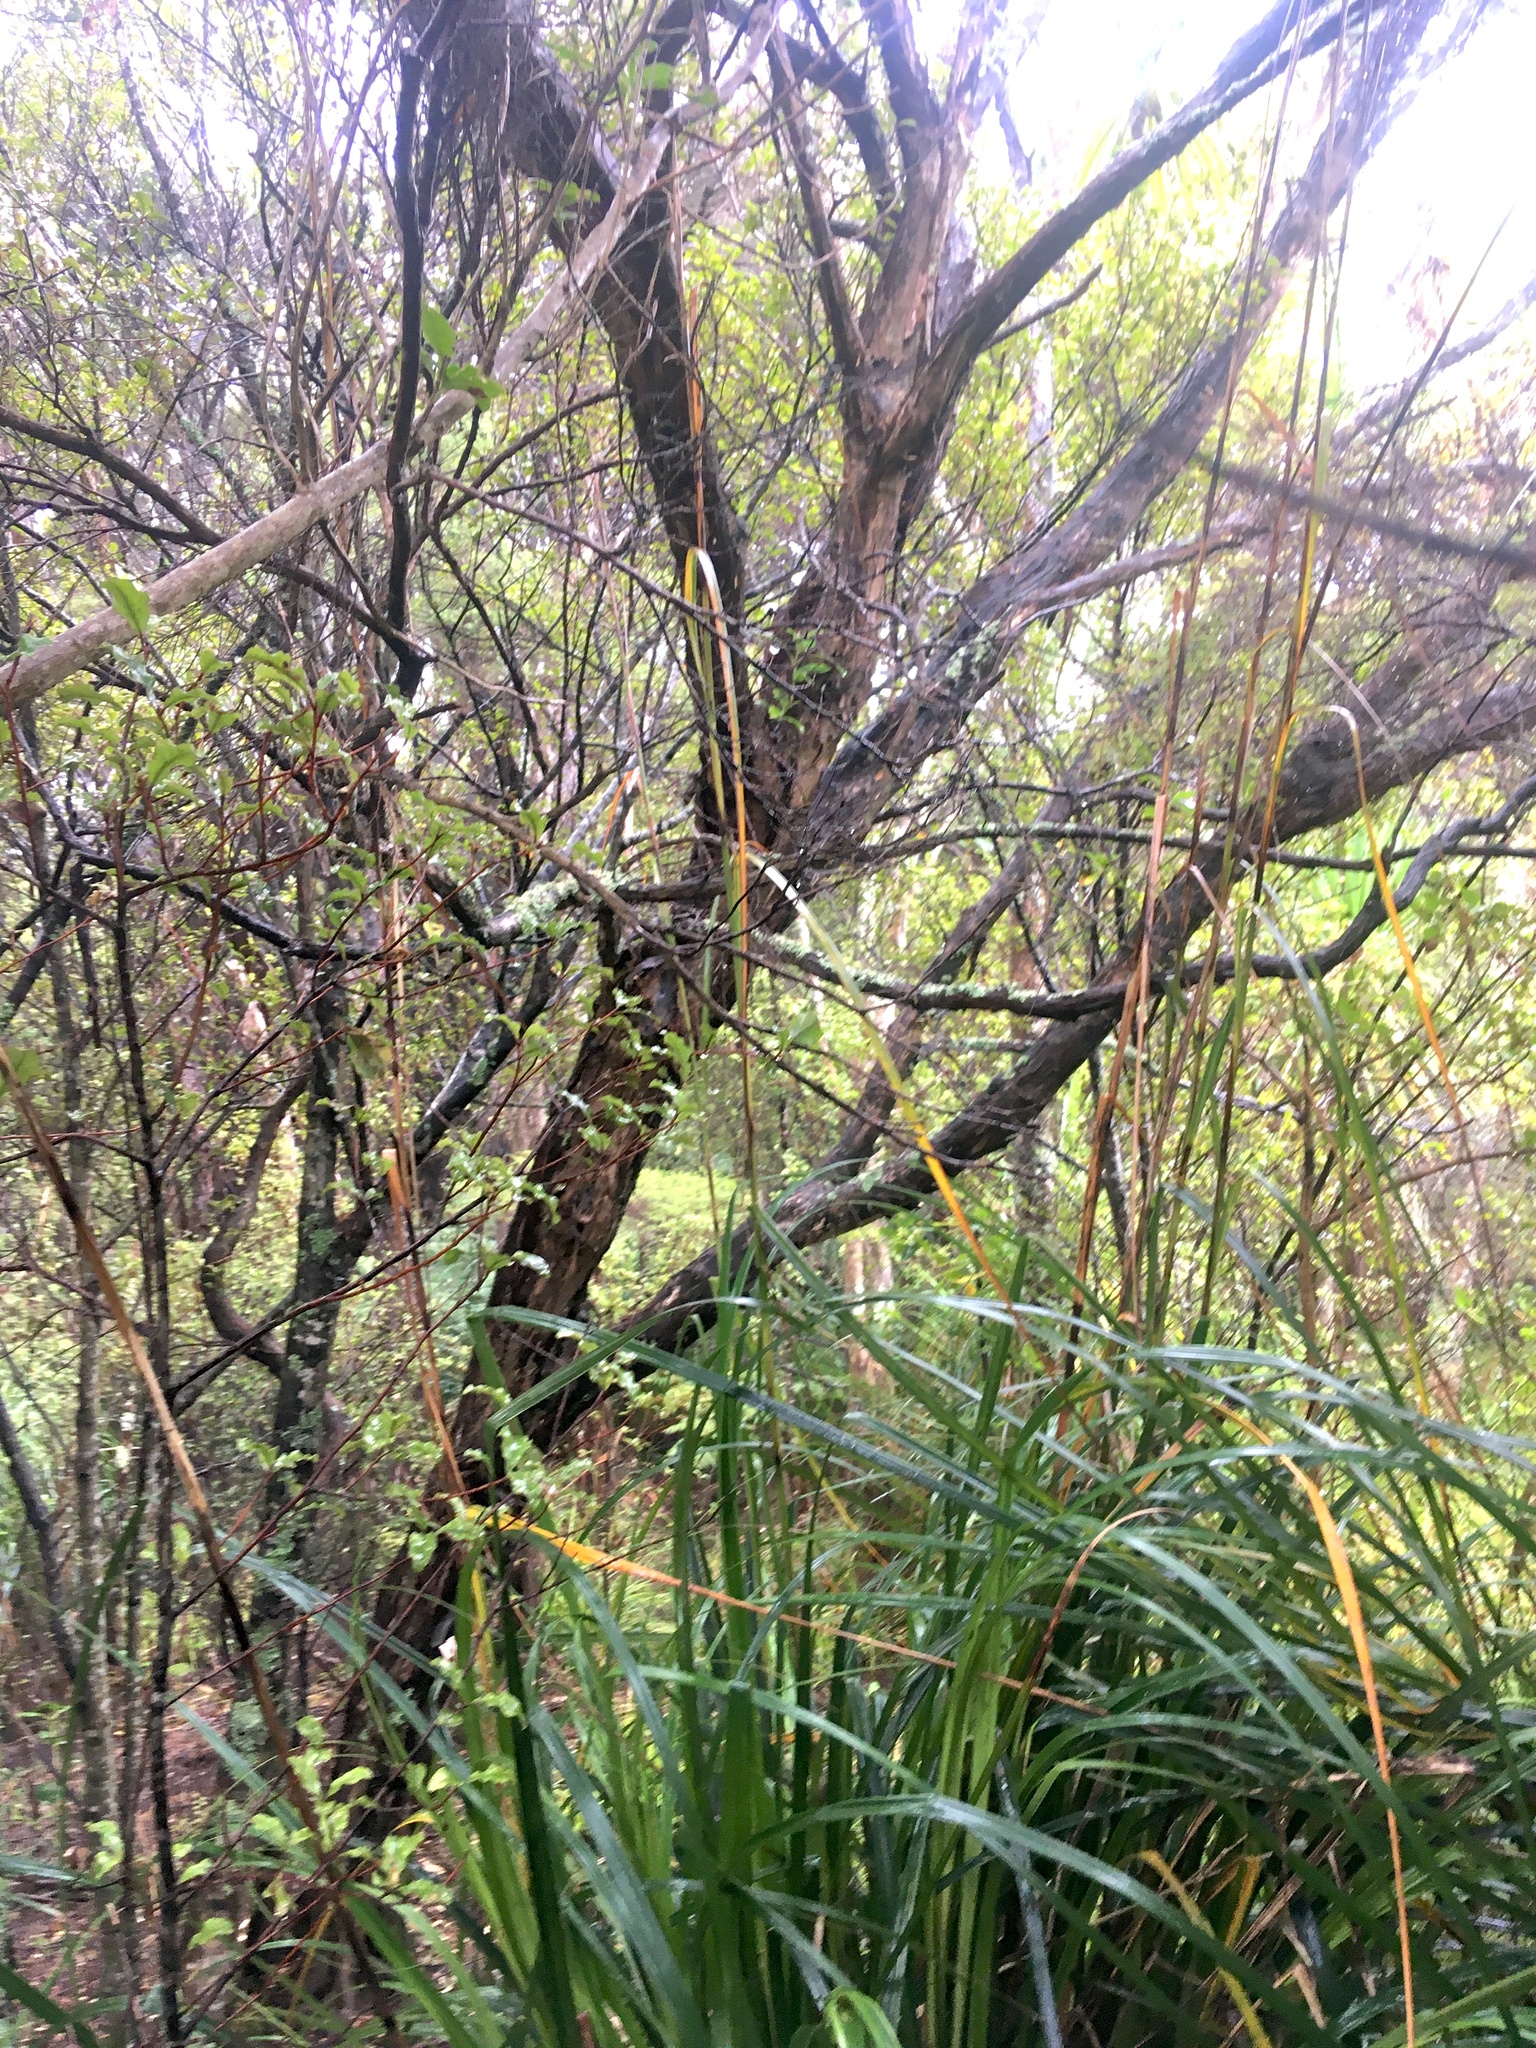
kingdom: Plantae
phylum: Tracheophyta
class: Magnoliopsida
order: Myrtales
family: Myrtaceae
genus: Kunzea
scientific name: Kunzea robusta
